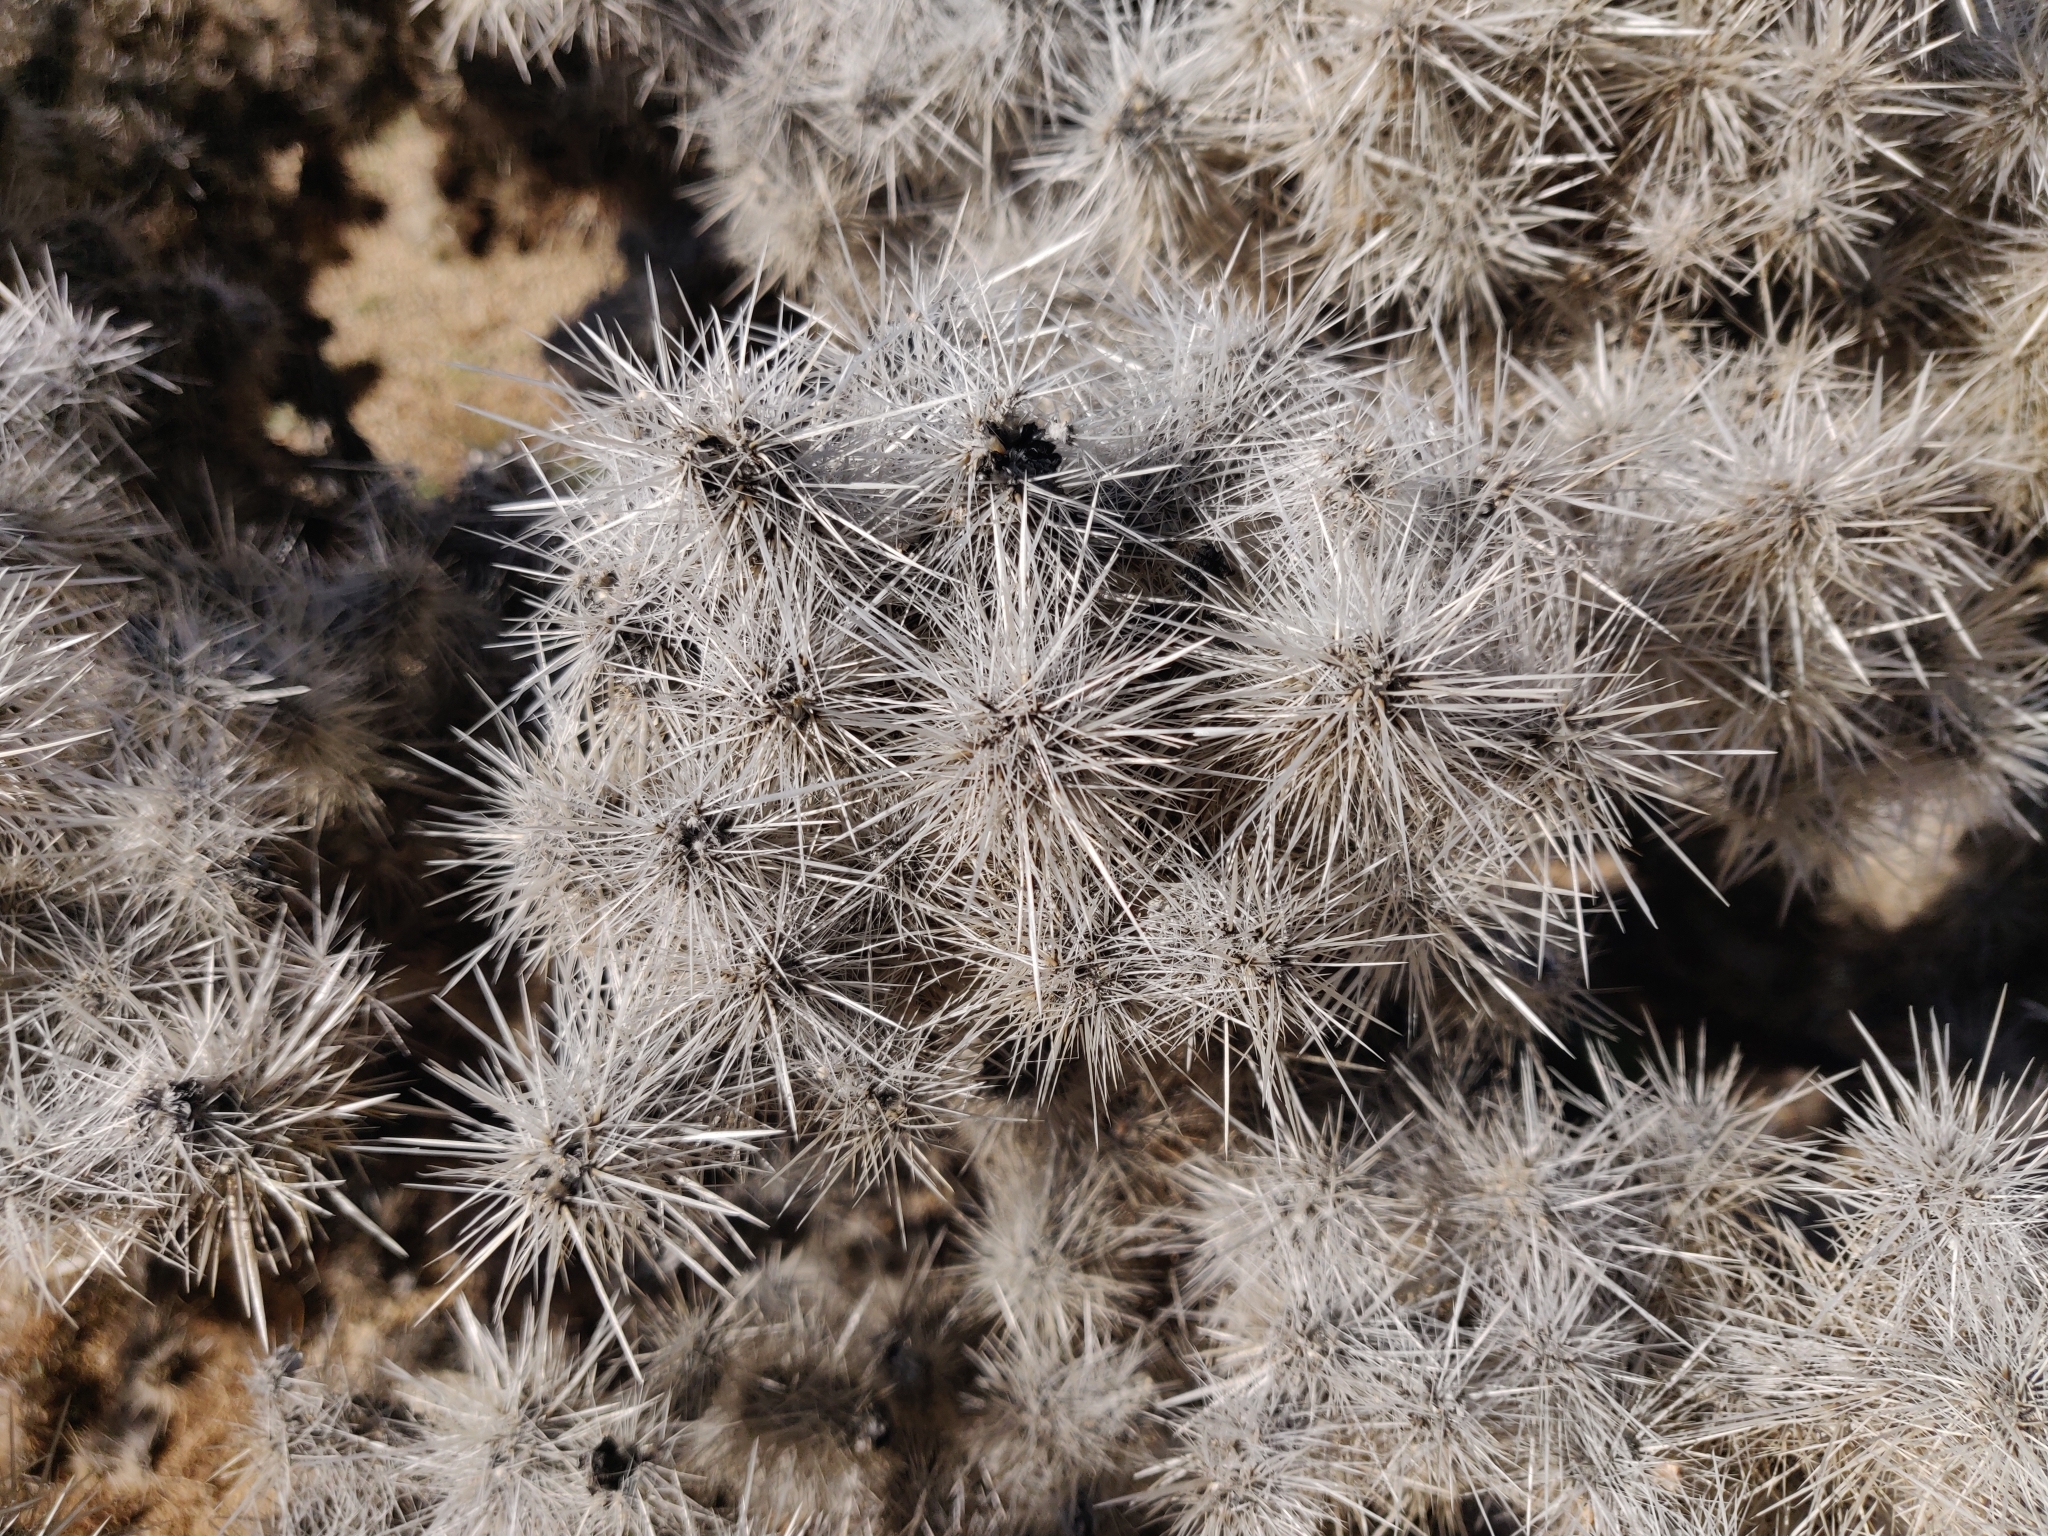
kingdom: Plantae
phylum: Tracheophyta
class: Magnoliopsida
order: Caryophyllales
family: Cactaceae
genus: Cylindropuntia
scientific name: Cylindropuntia chuckwallensis
